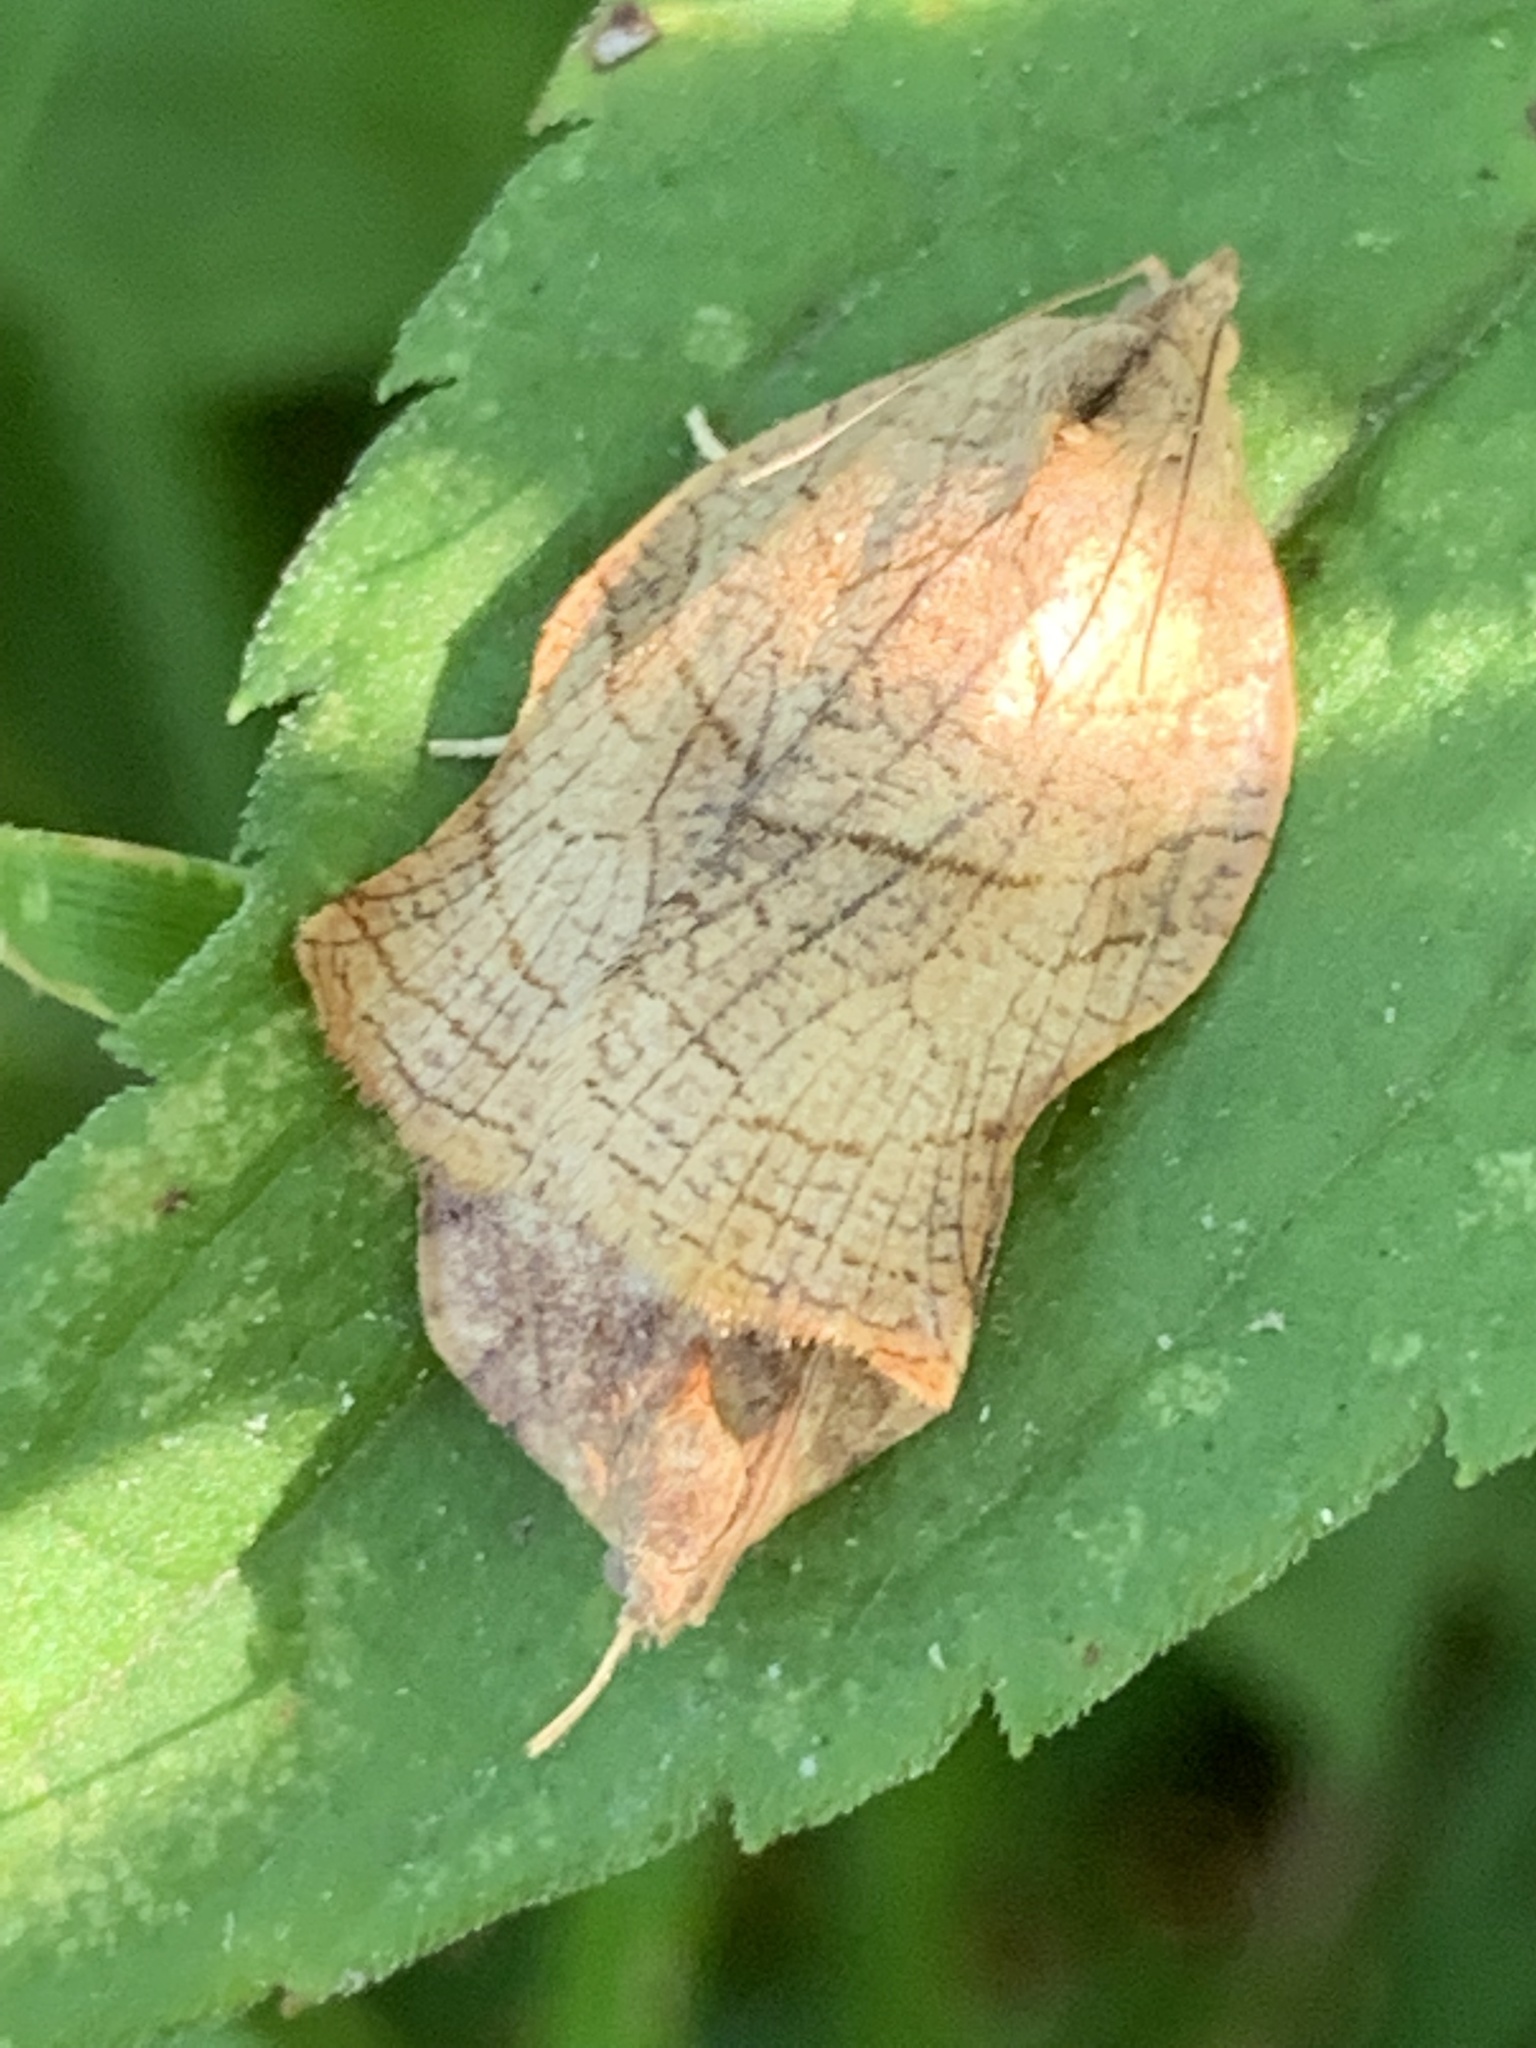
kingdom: Animalia
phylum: Arthropoda
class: Insecta
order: Lepidoptera
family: Tortricidae
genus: Archips
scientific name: Archips purpurana
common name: Omnivorous leafroller
